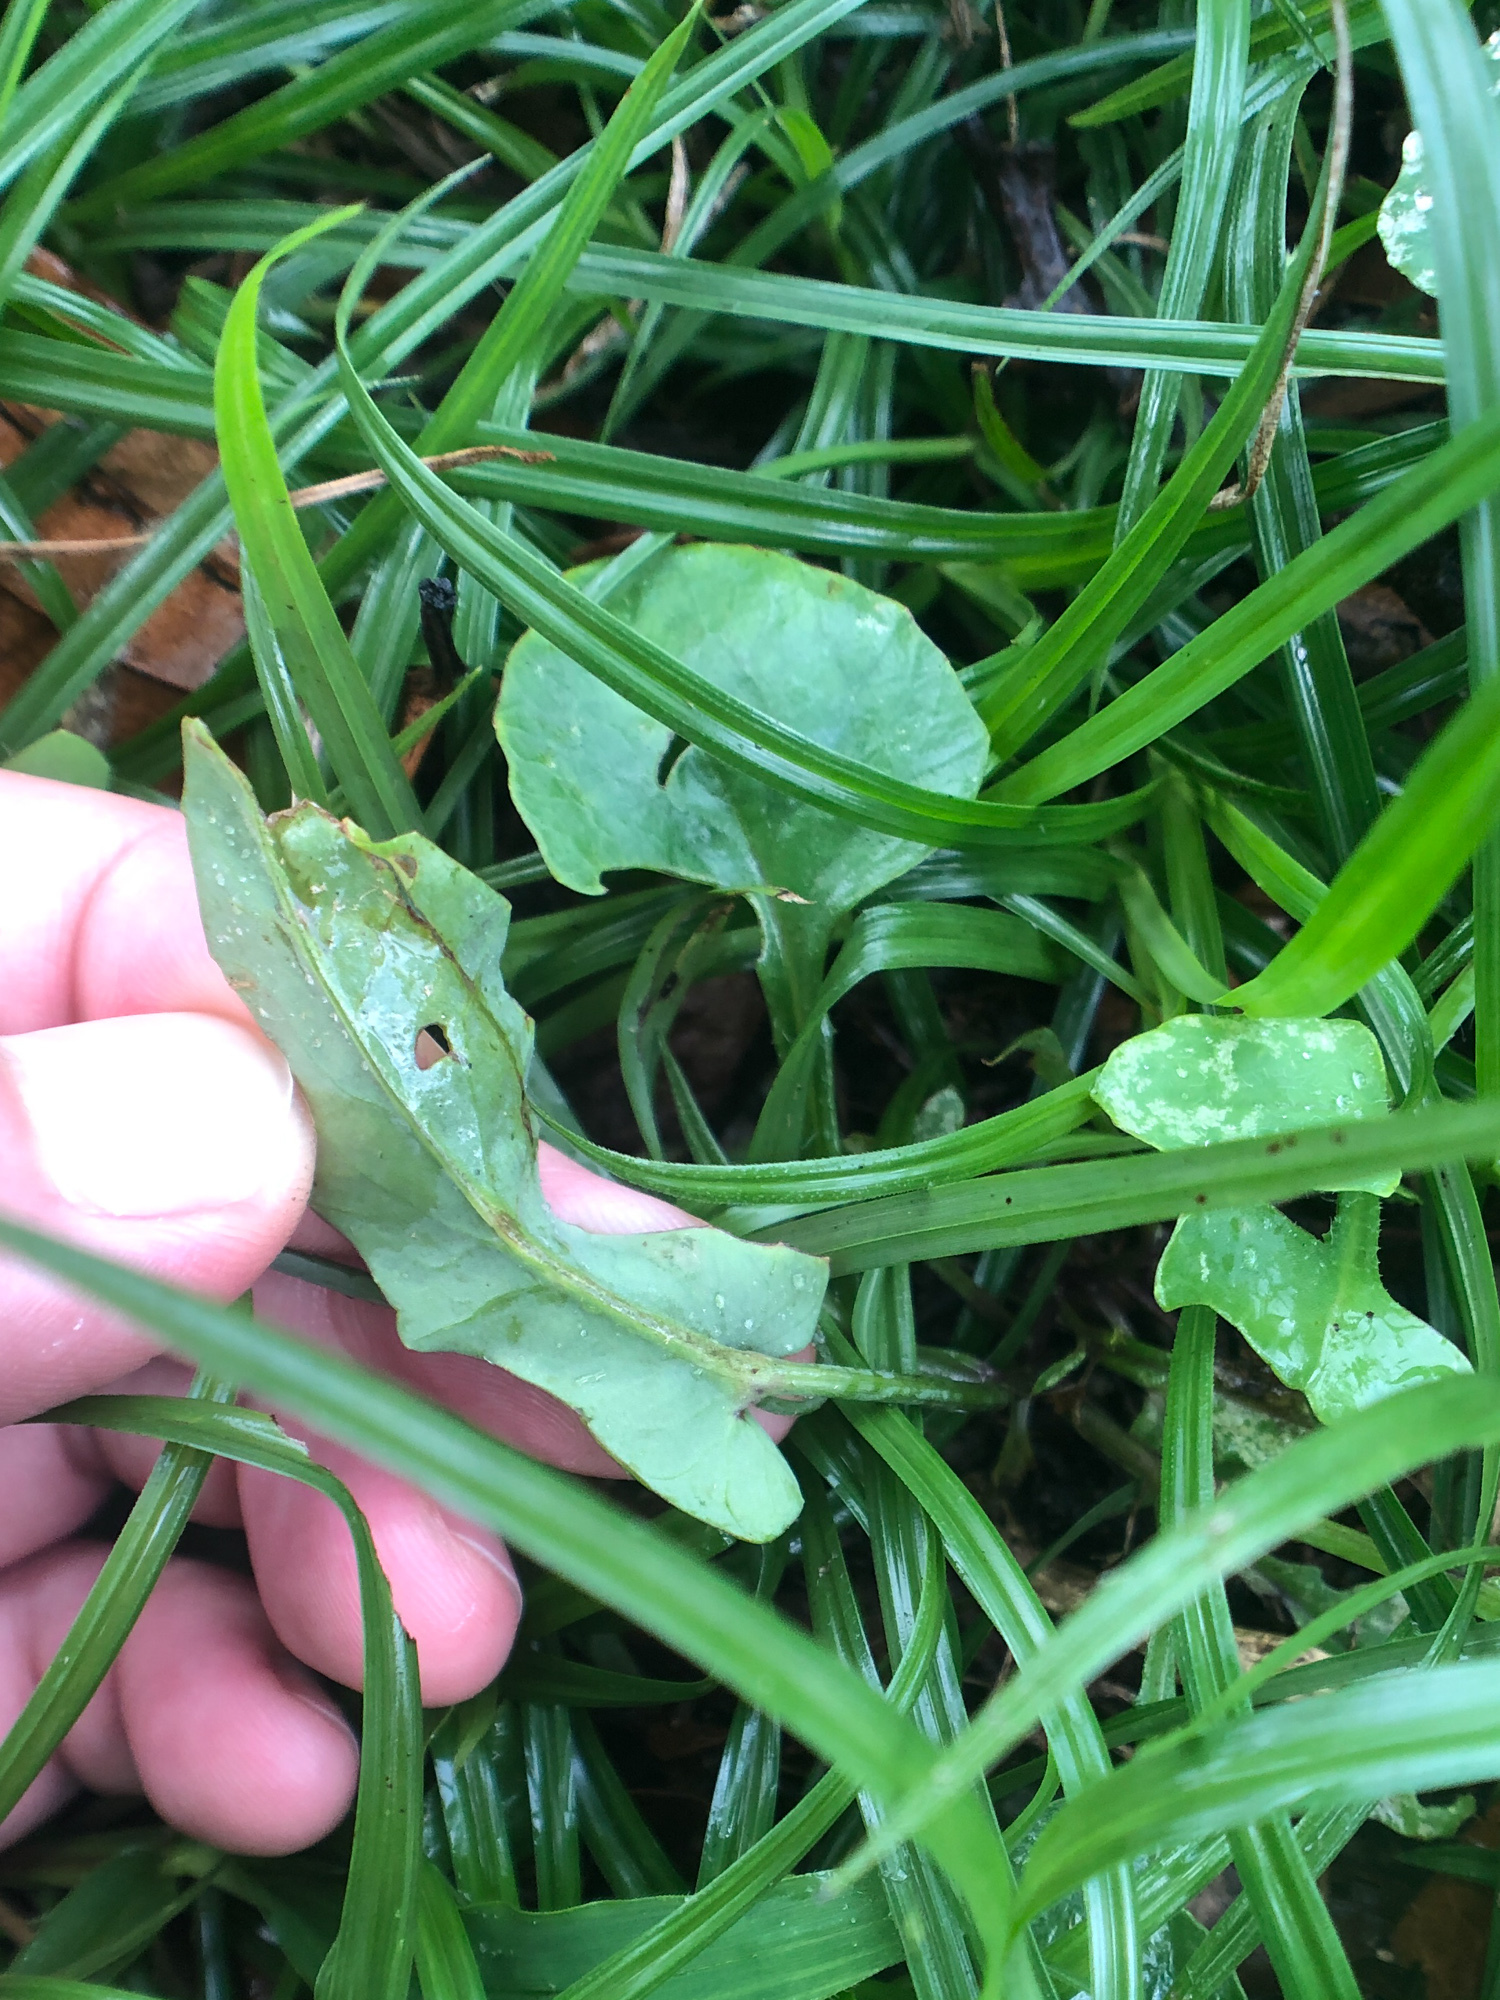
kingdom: Plantae
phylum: Tracheophyta
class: Magnoliopsida
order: Asterales
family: Asteraceae
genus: Emilia
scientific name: Emilia javanica
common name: Tassel-flower
